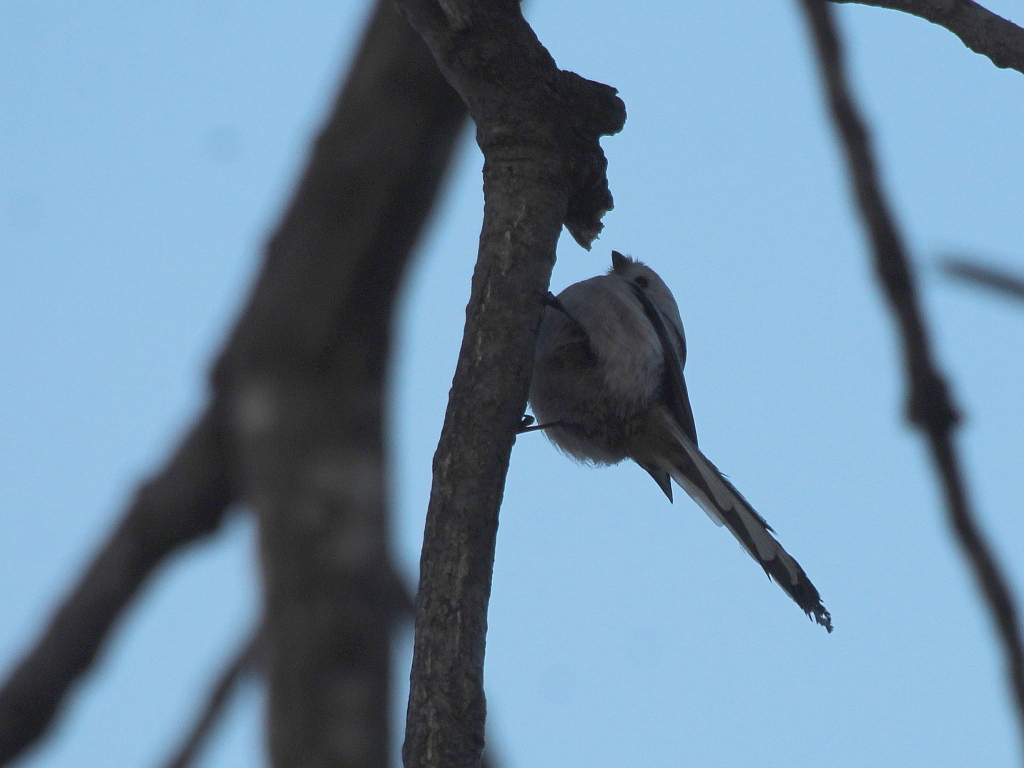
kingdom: Animalia
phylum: Chordata
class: Aves
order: Passeriformes
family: Aegithalidae
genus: Aegithalos
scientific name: Aegithalos caudatus
